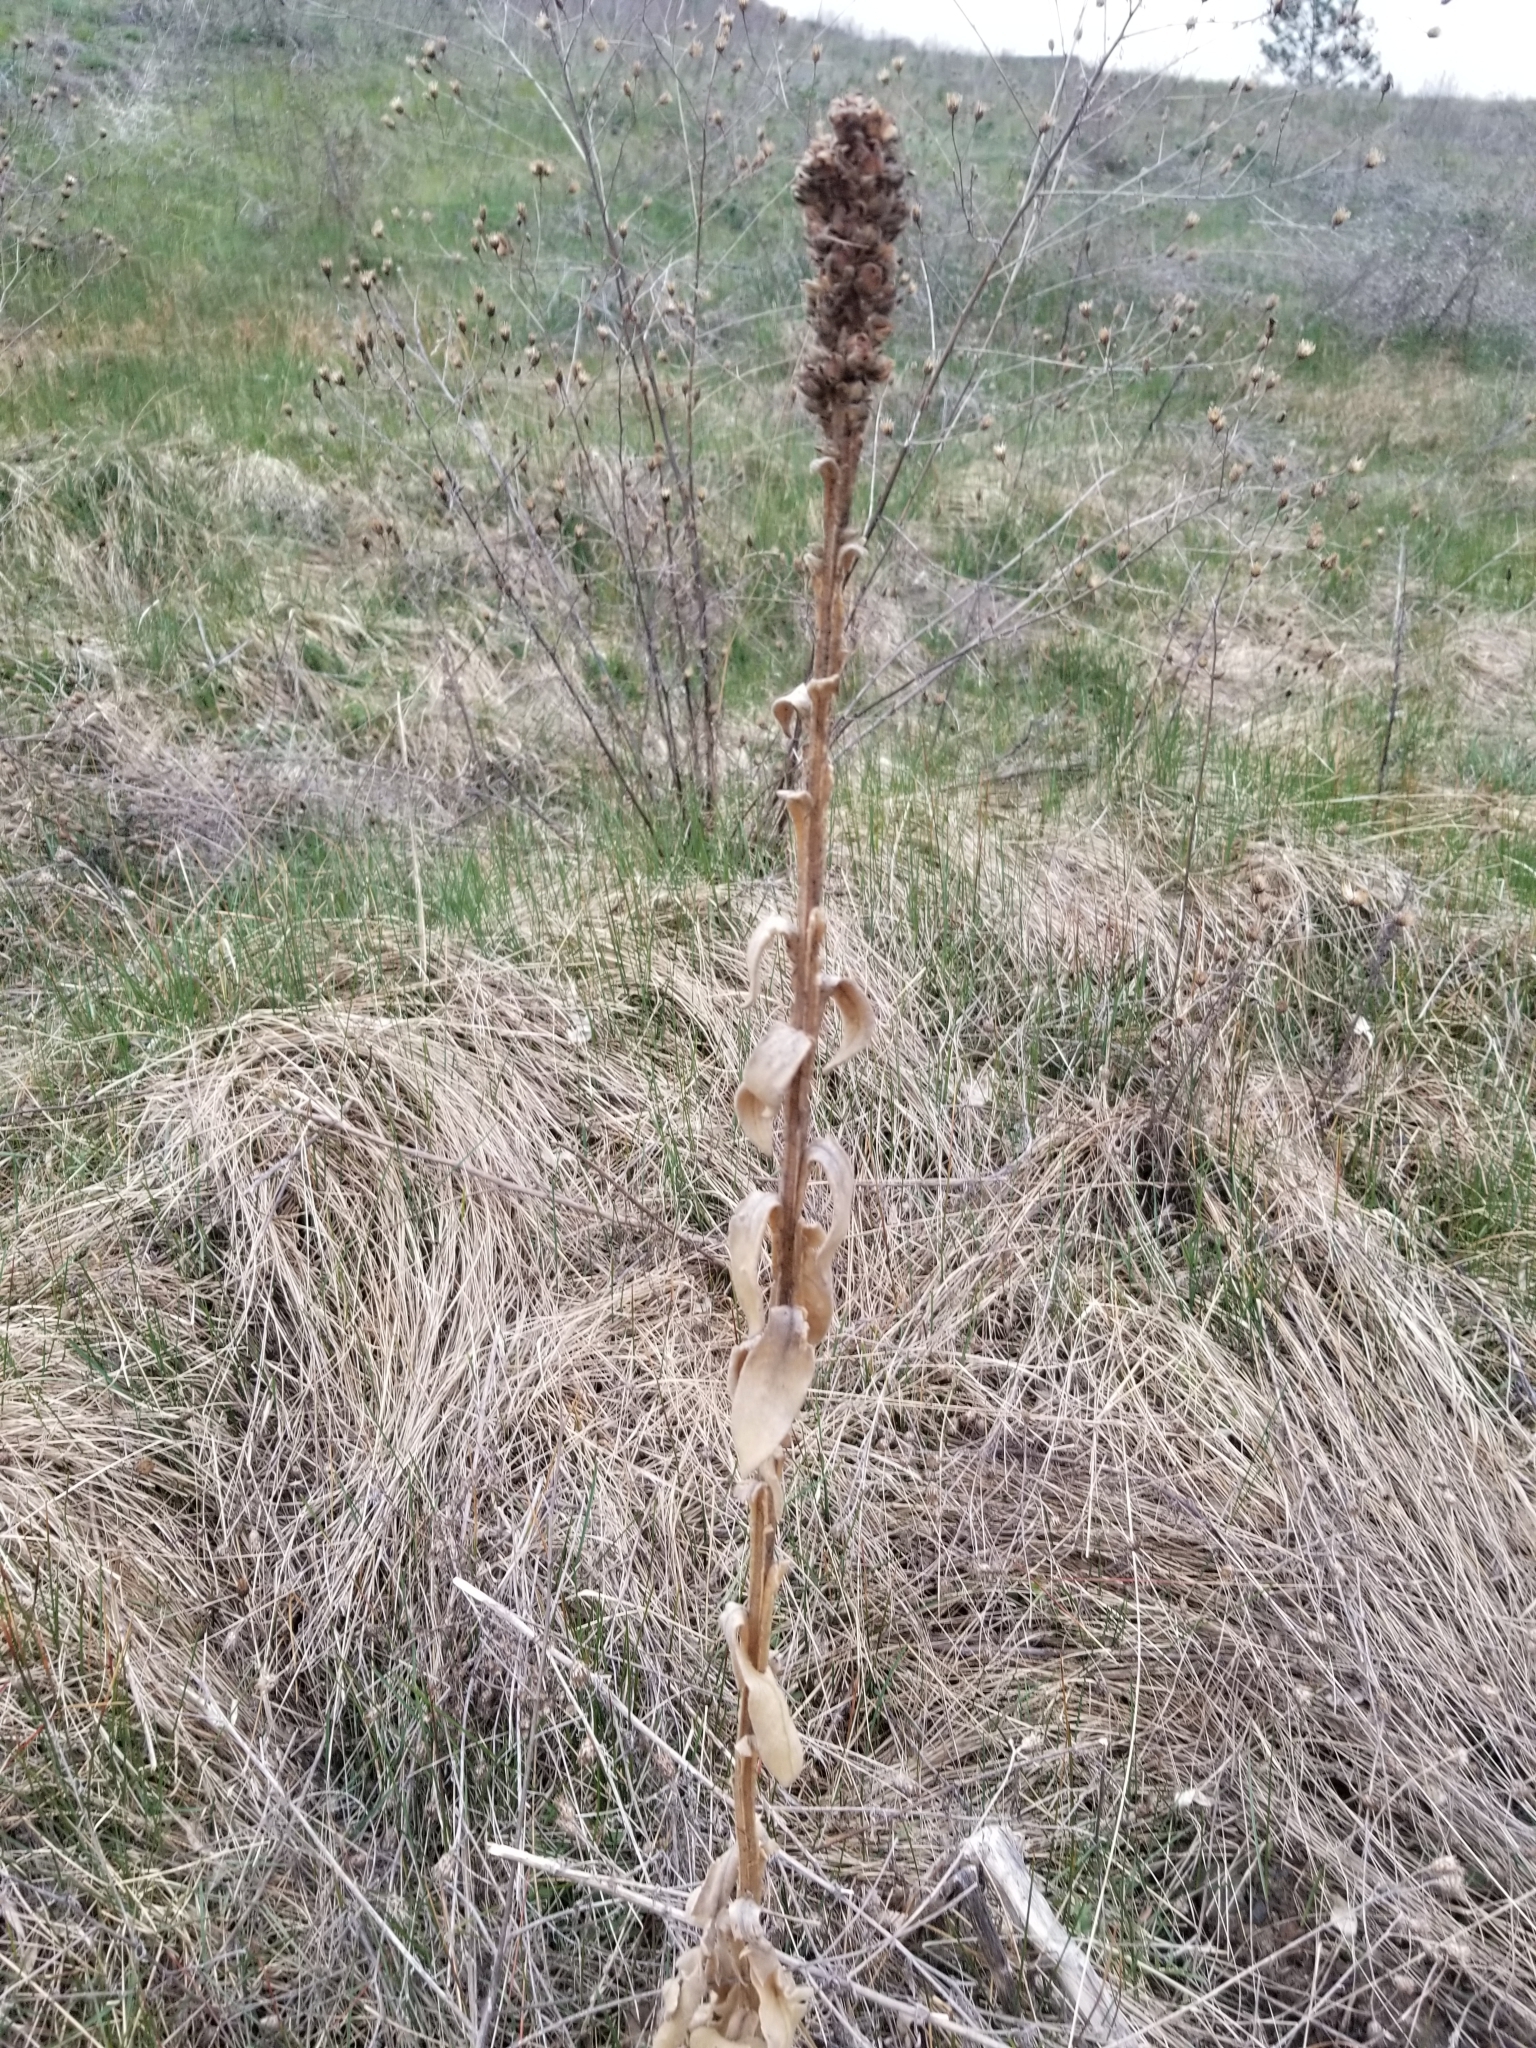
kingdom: Plantae
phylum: Tracheophyta
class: Magnoliopsida
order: Lamiales
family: Scrophulariaceae
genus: Verbascum
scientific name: Verbascum thapsus
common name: Common mullein
